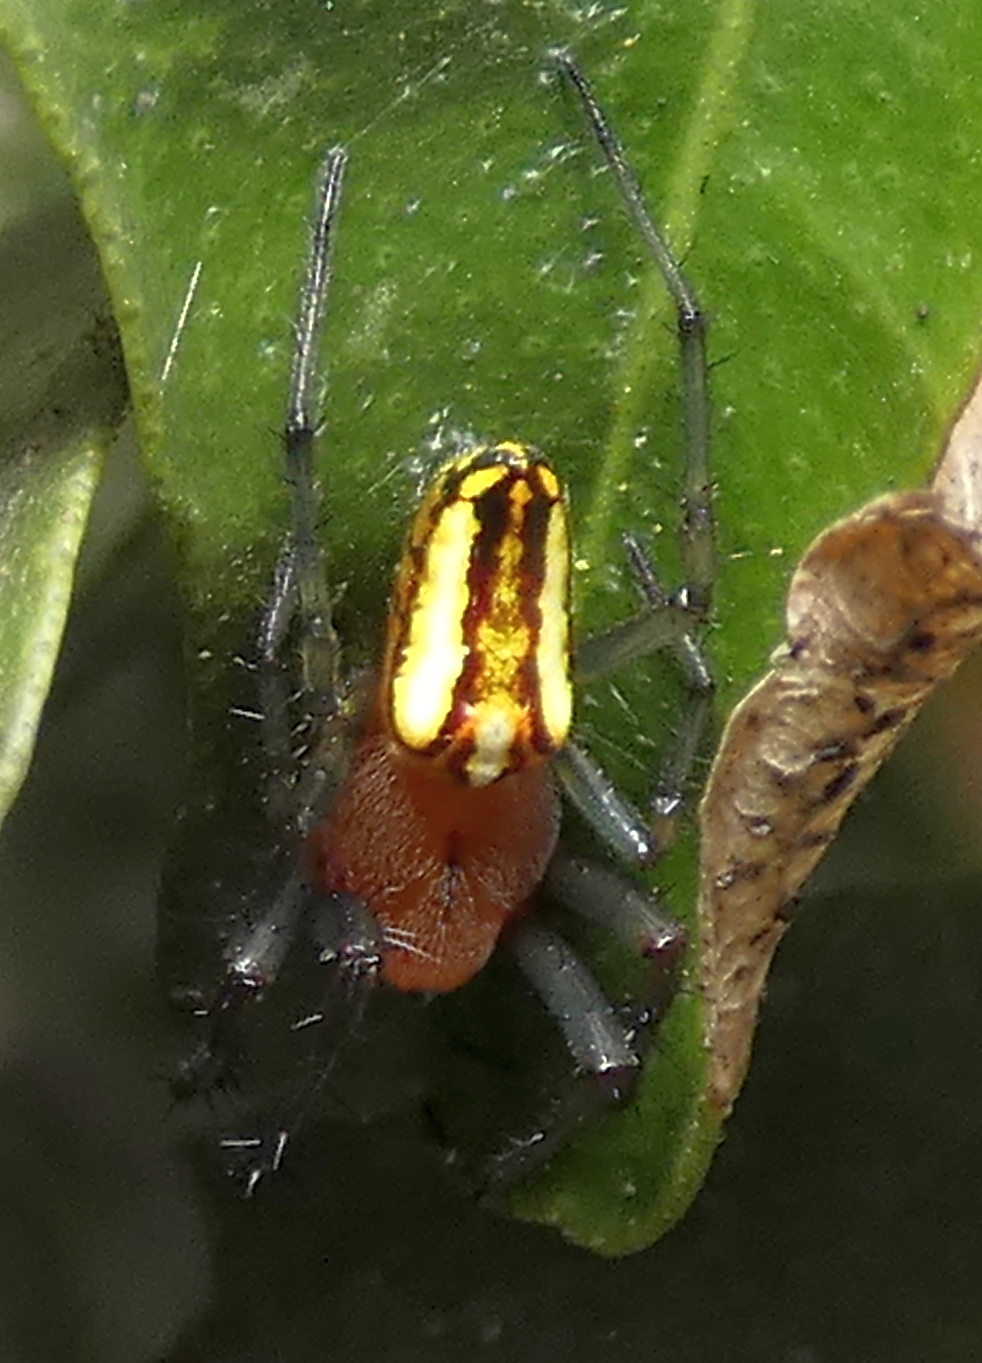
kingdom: Animalia
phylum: Arthropoda
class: Arachnida
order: Araneae
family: Araneidae
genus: Alpaida
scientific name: Alpaida bicornuta
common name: Orb weavers
